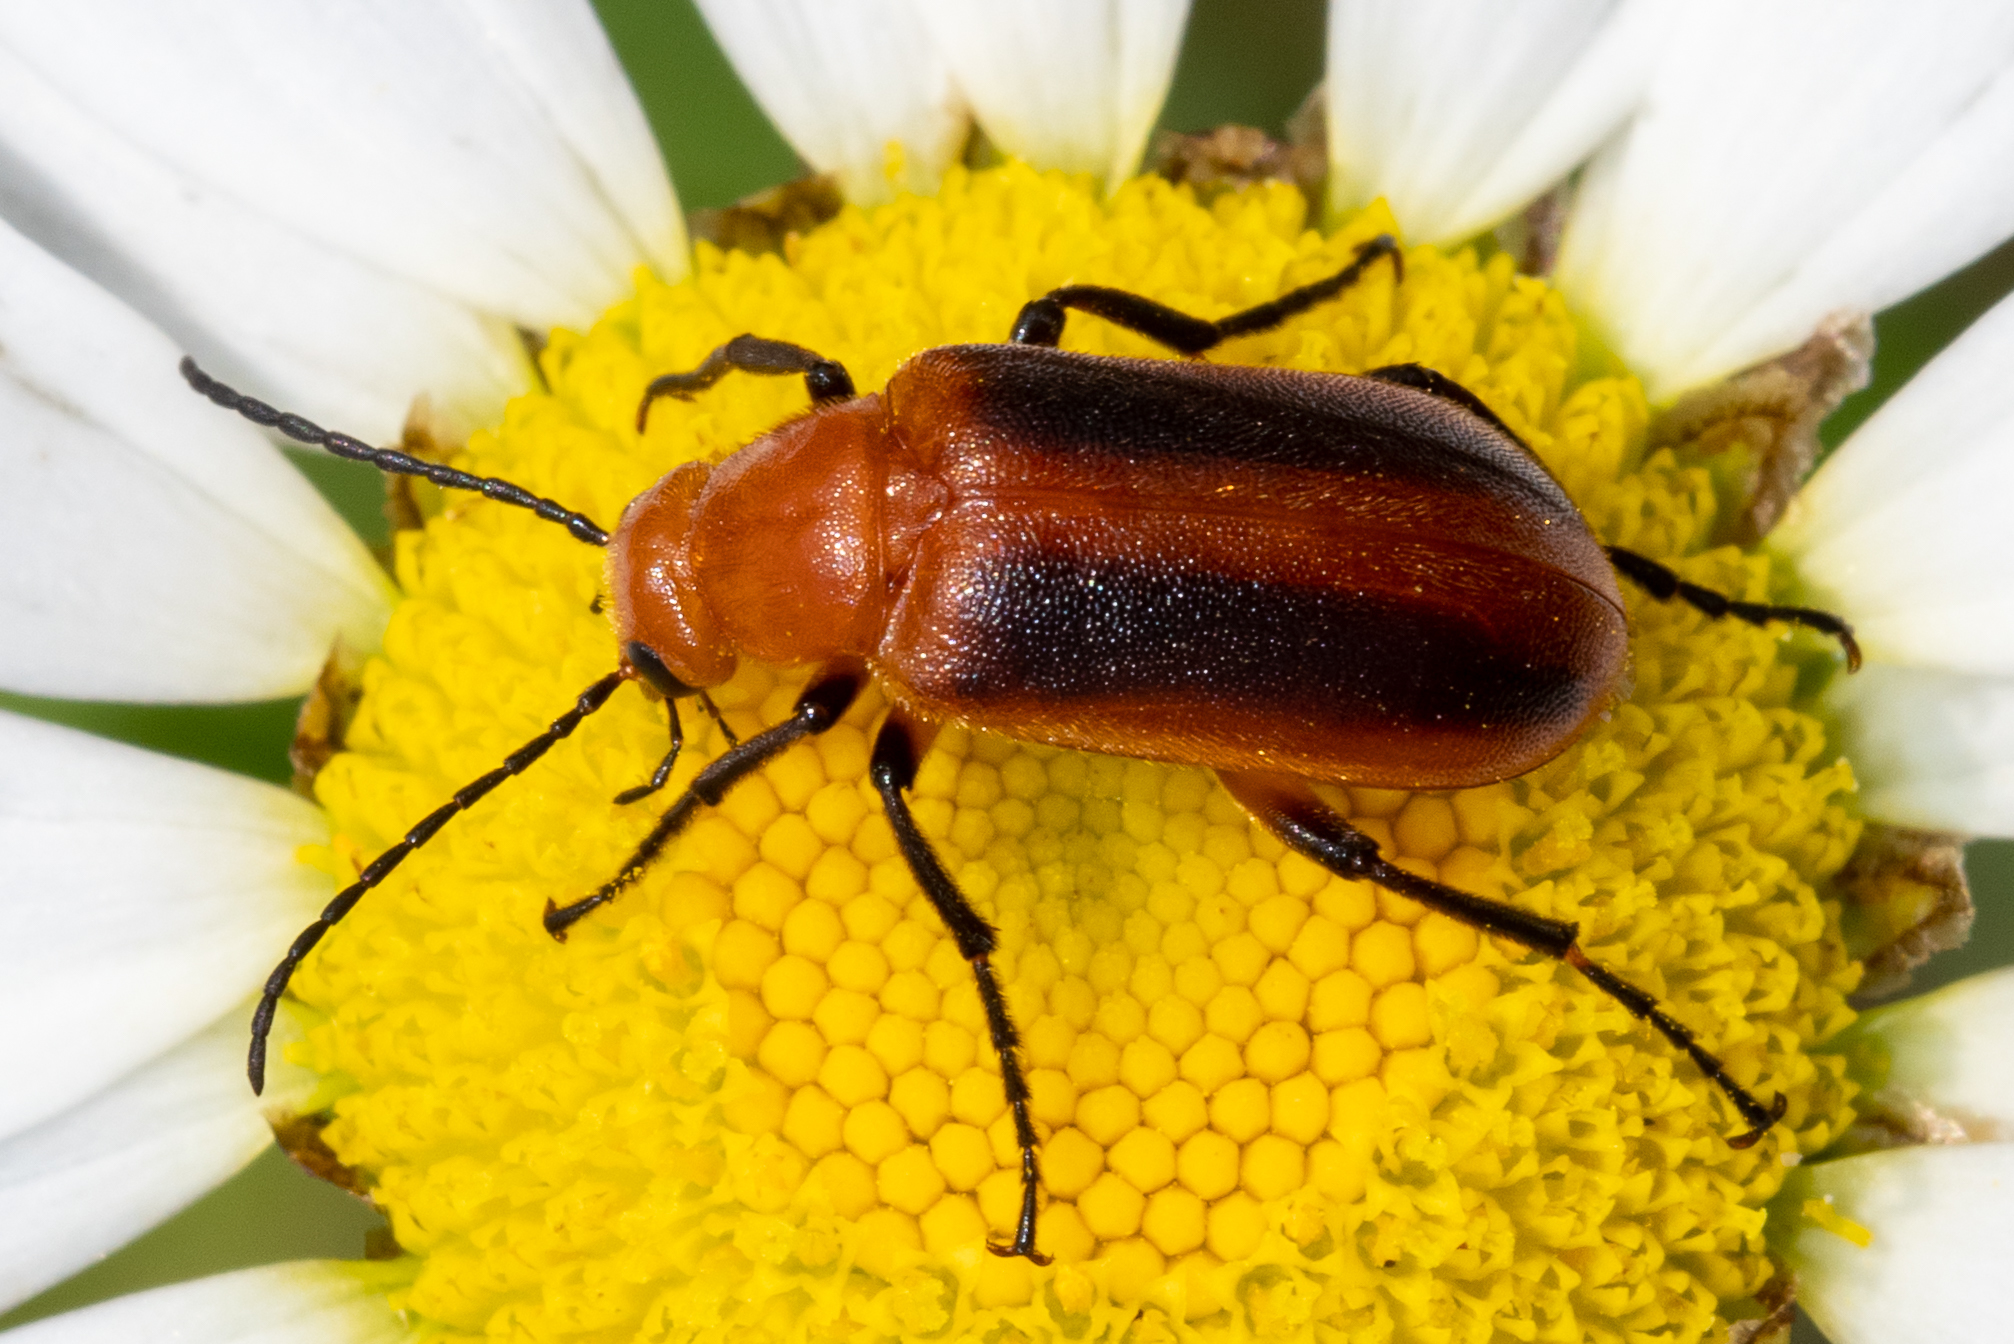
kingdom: Animalia
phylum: Arthropoda
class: Insecta
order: Coleoptera
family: Meloidae
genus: Zonitis
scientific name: Zonitis vittigera
